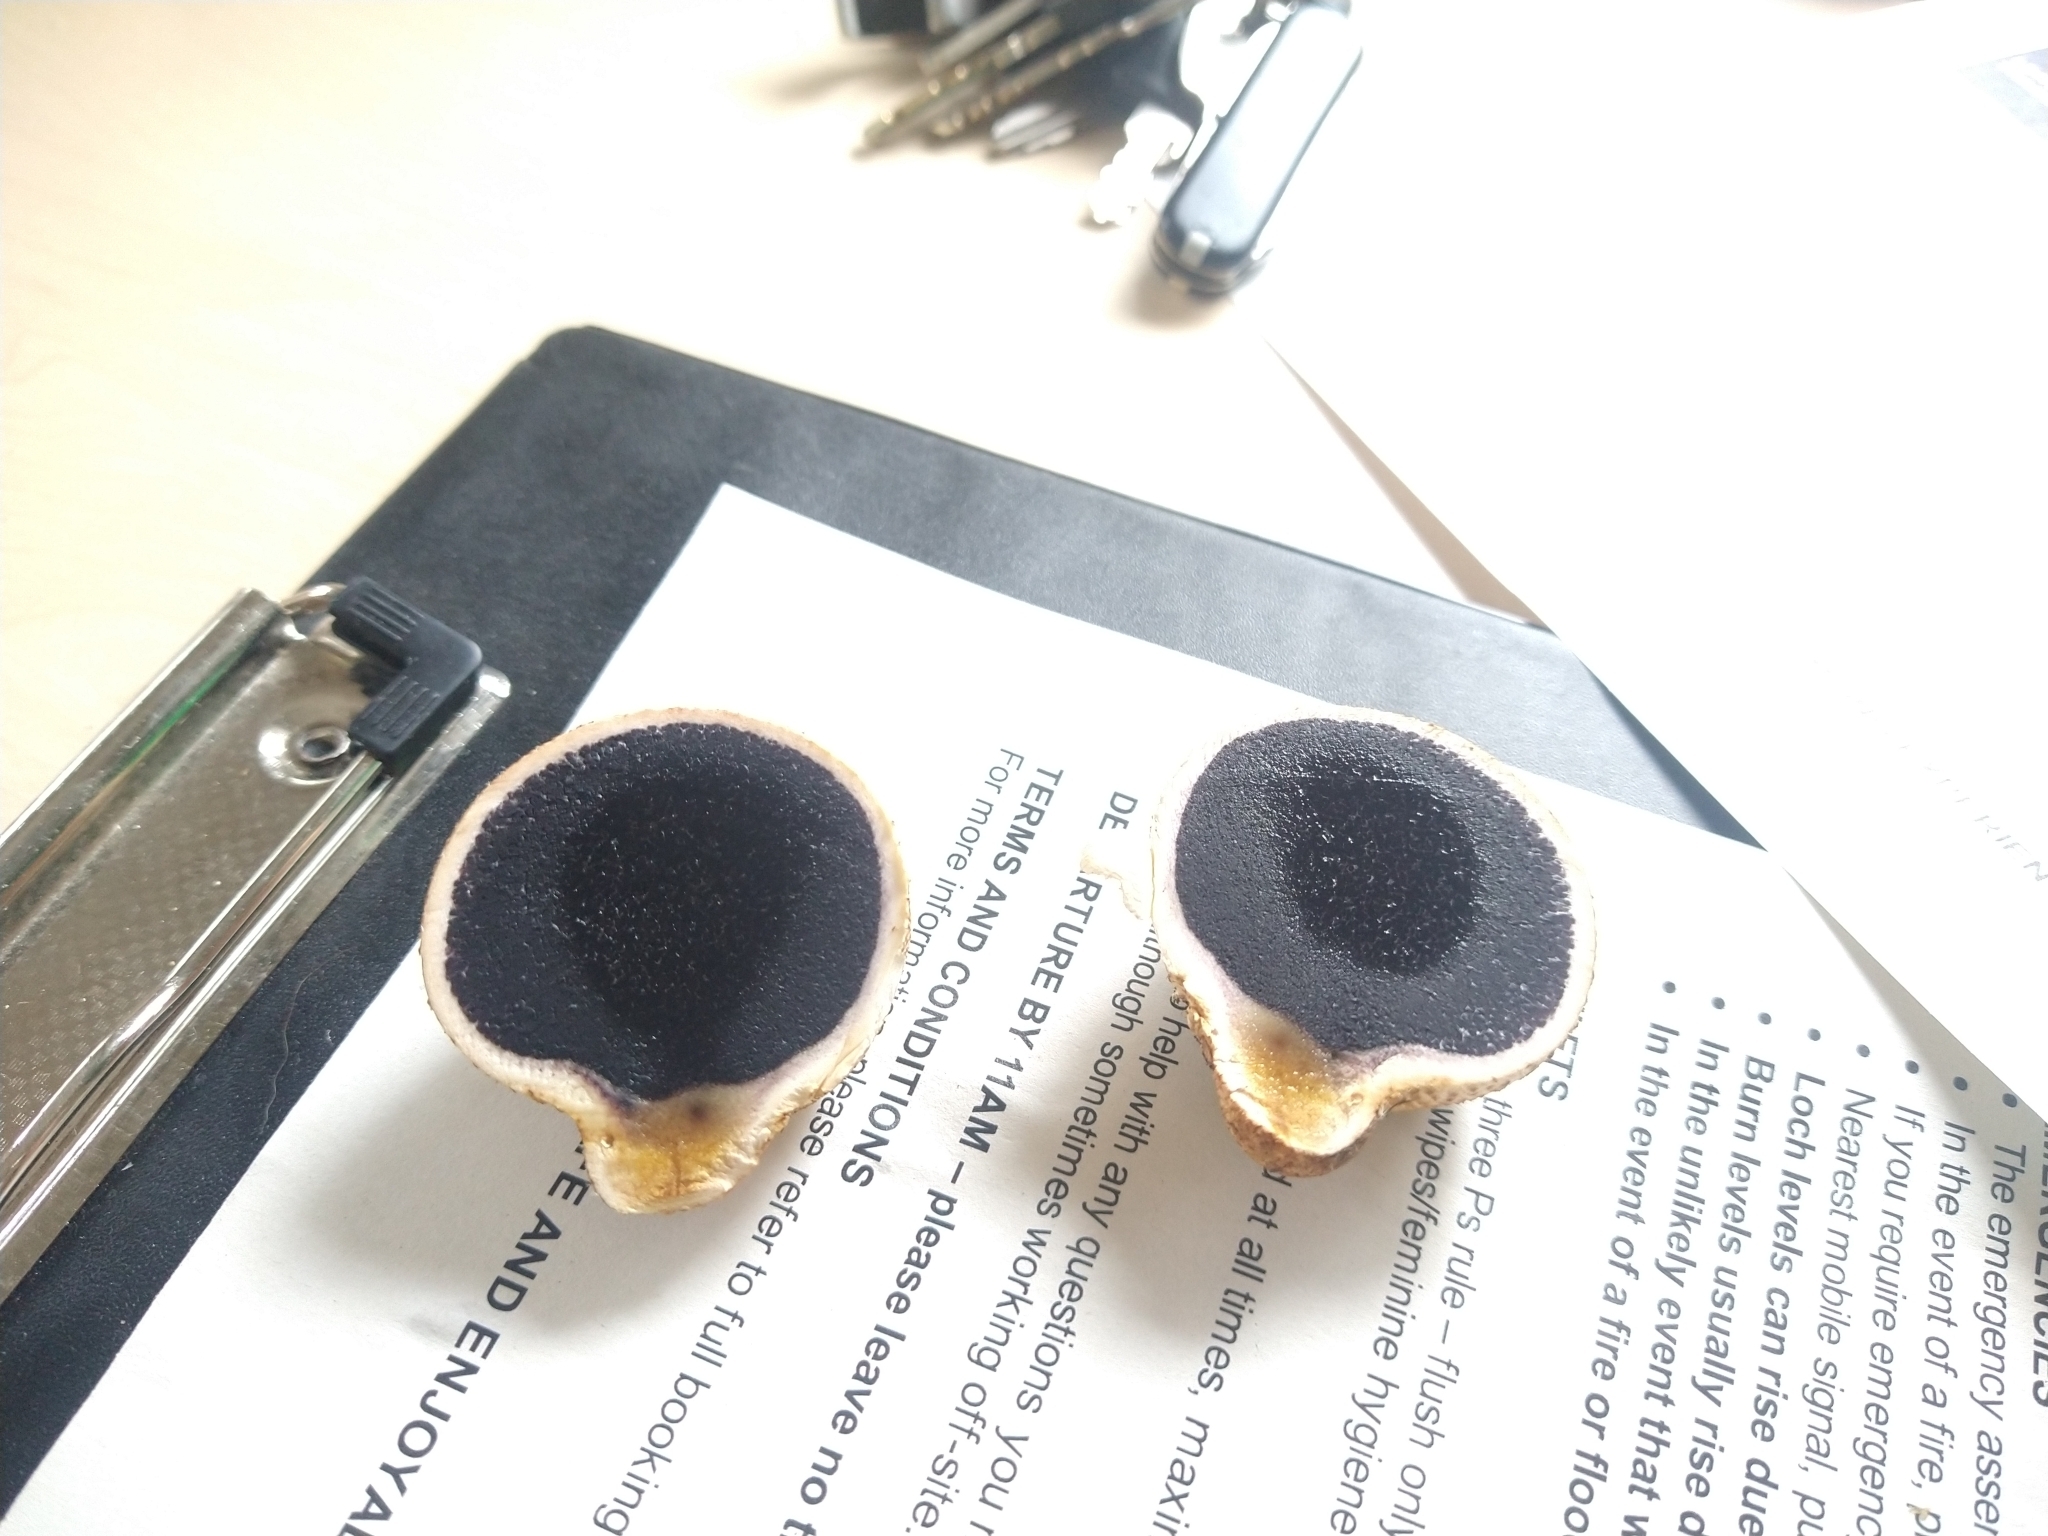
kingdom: Fungi
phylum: Basidiomycota
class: Agaricomycetes
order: Boletales
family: Sclerodermataceae
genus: Scleroderma
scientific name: Scleroderma citrinum
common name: Common earthball
